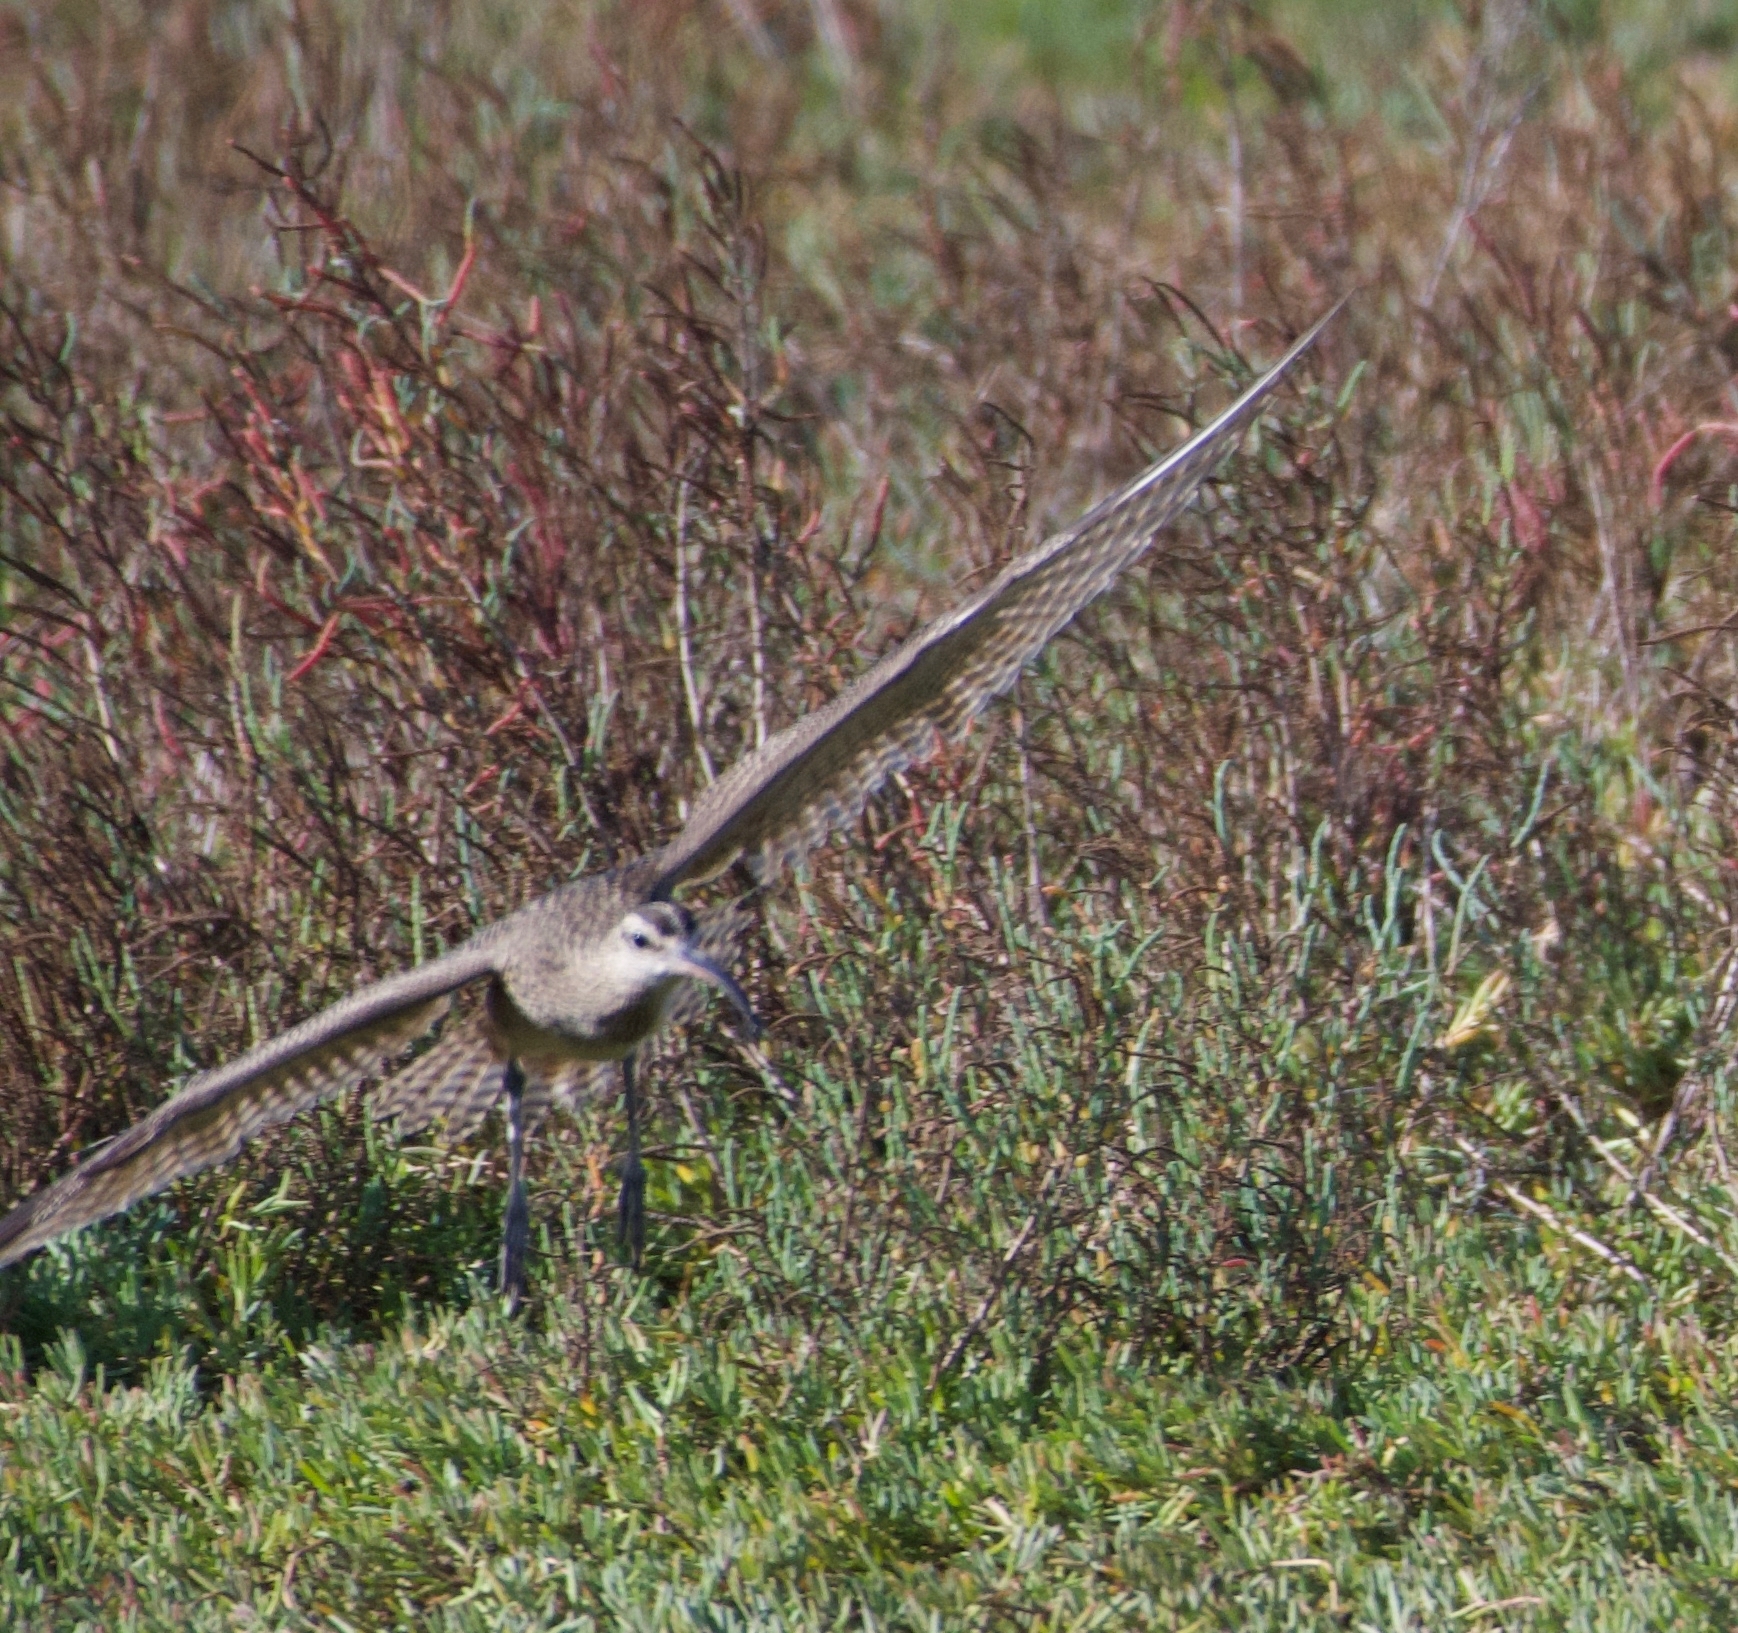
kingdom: Animalia
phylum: Chordata
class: Aves
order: Charadriiformes
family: Scolopacidae
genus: Numenius
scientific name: Numenius phaeopus
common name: Whimbrel
